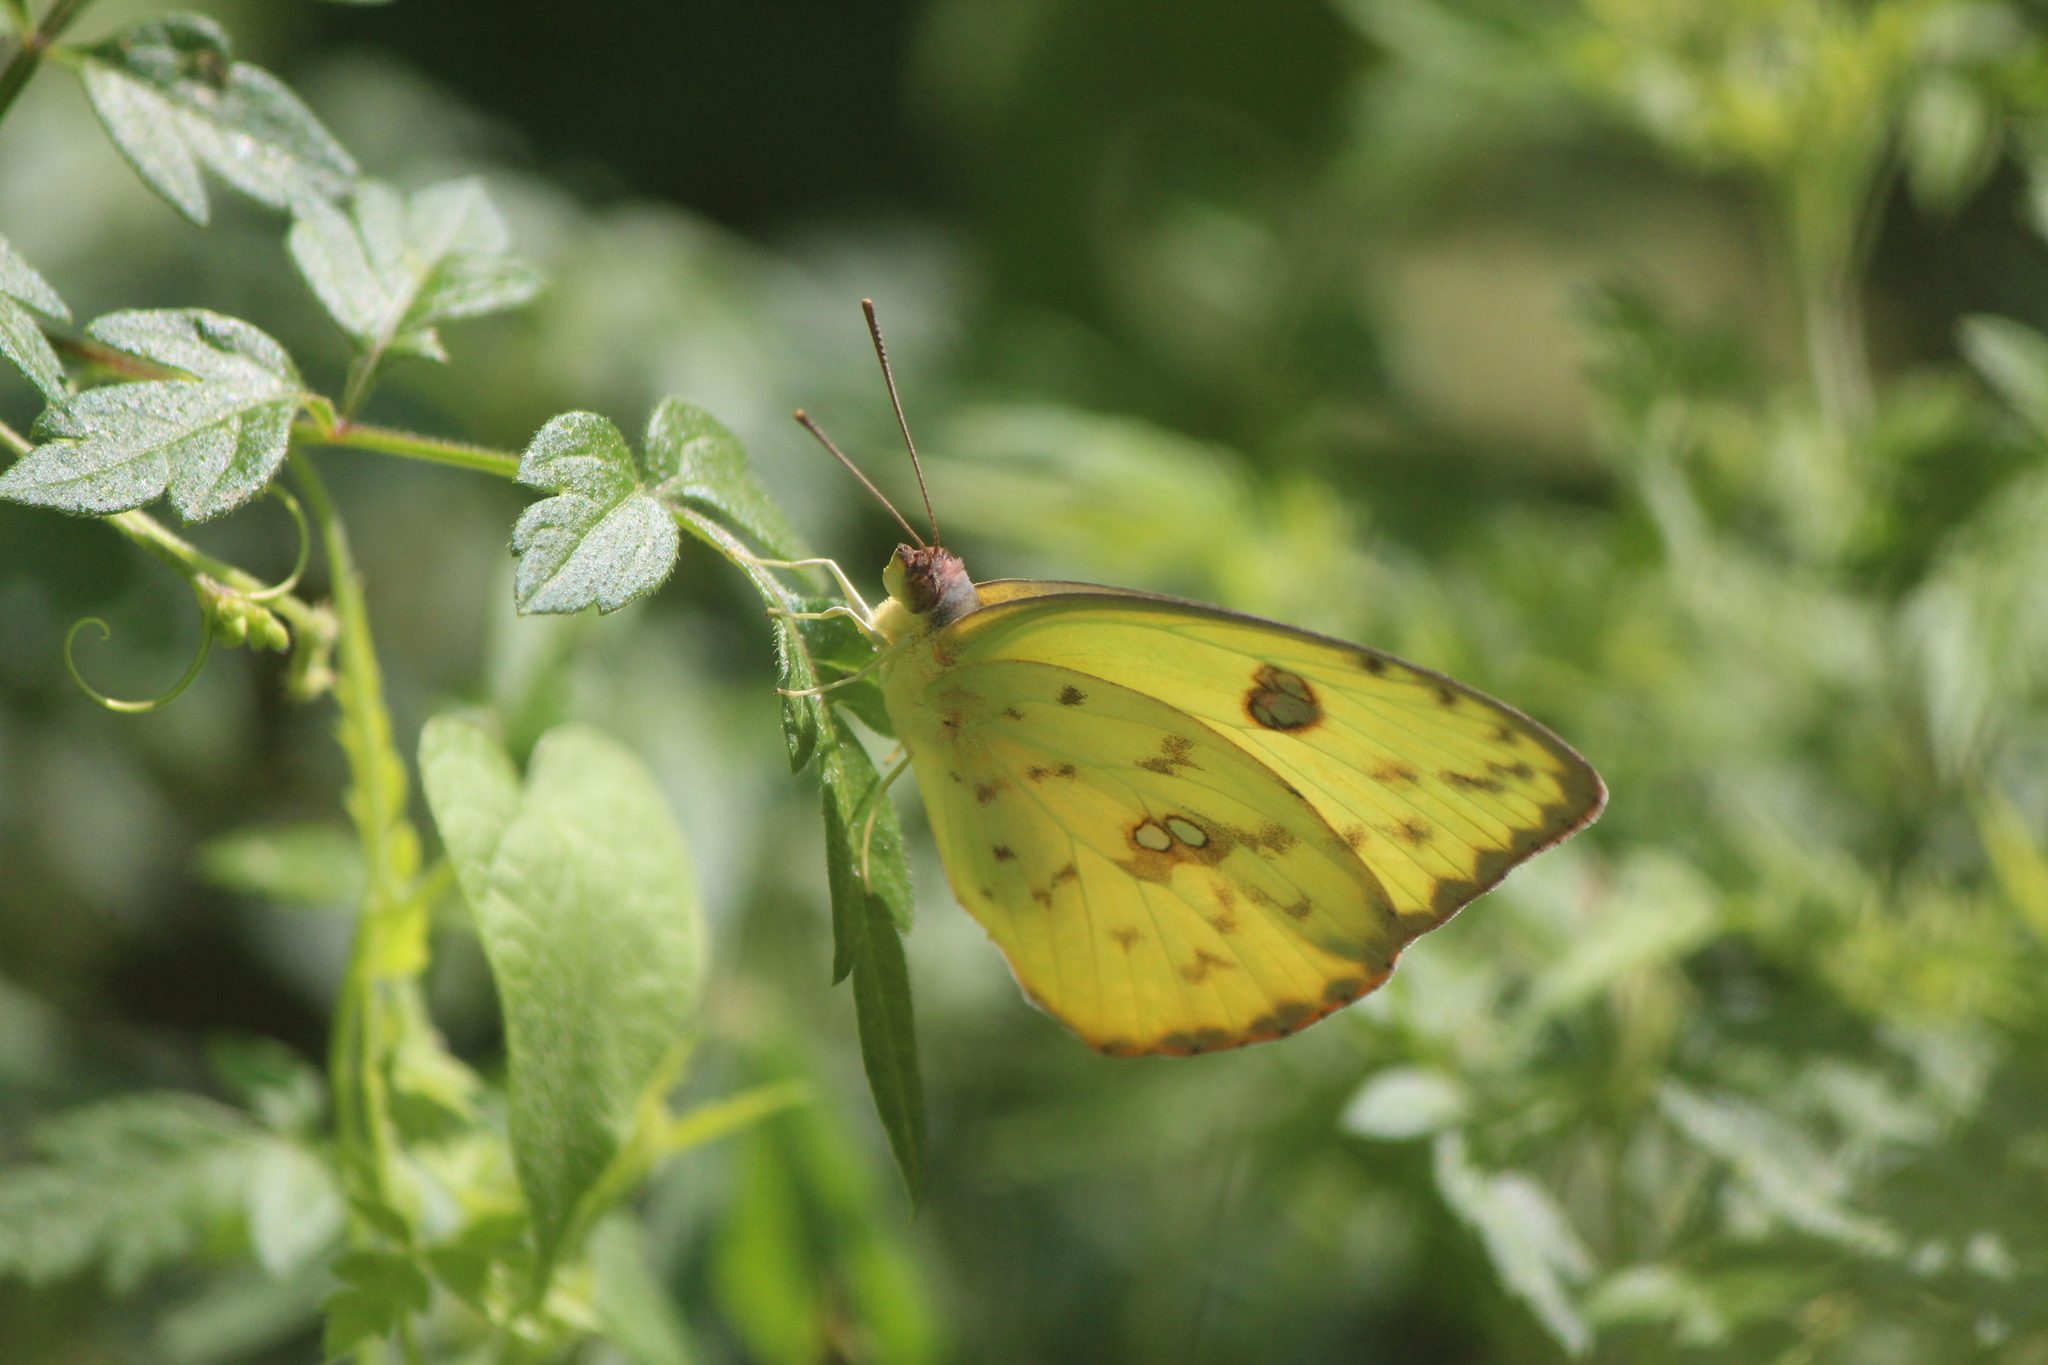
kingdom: Animalia
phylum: Arthropoda
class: Insecta
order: Lepidoptera
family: Pieridae
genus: Phoebis
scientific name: Phoebis marcellina
